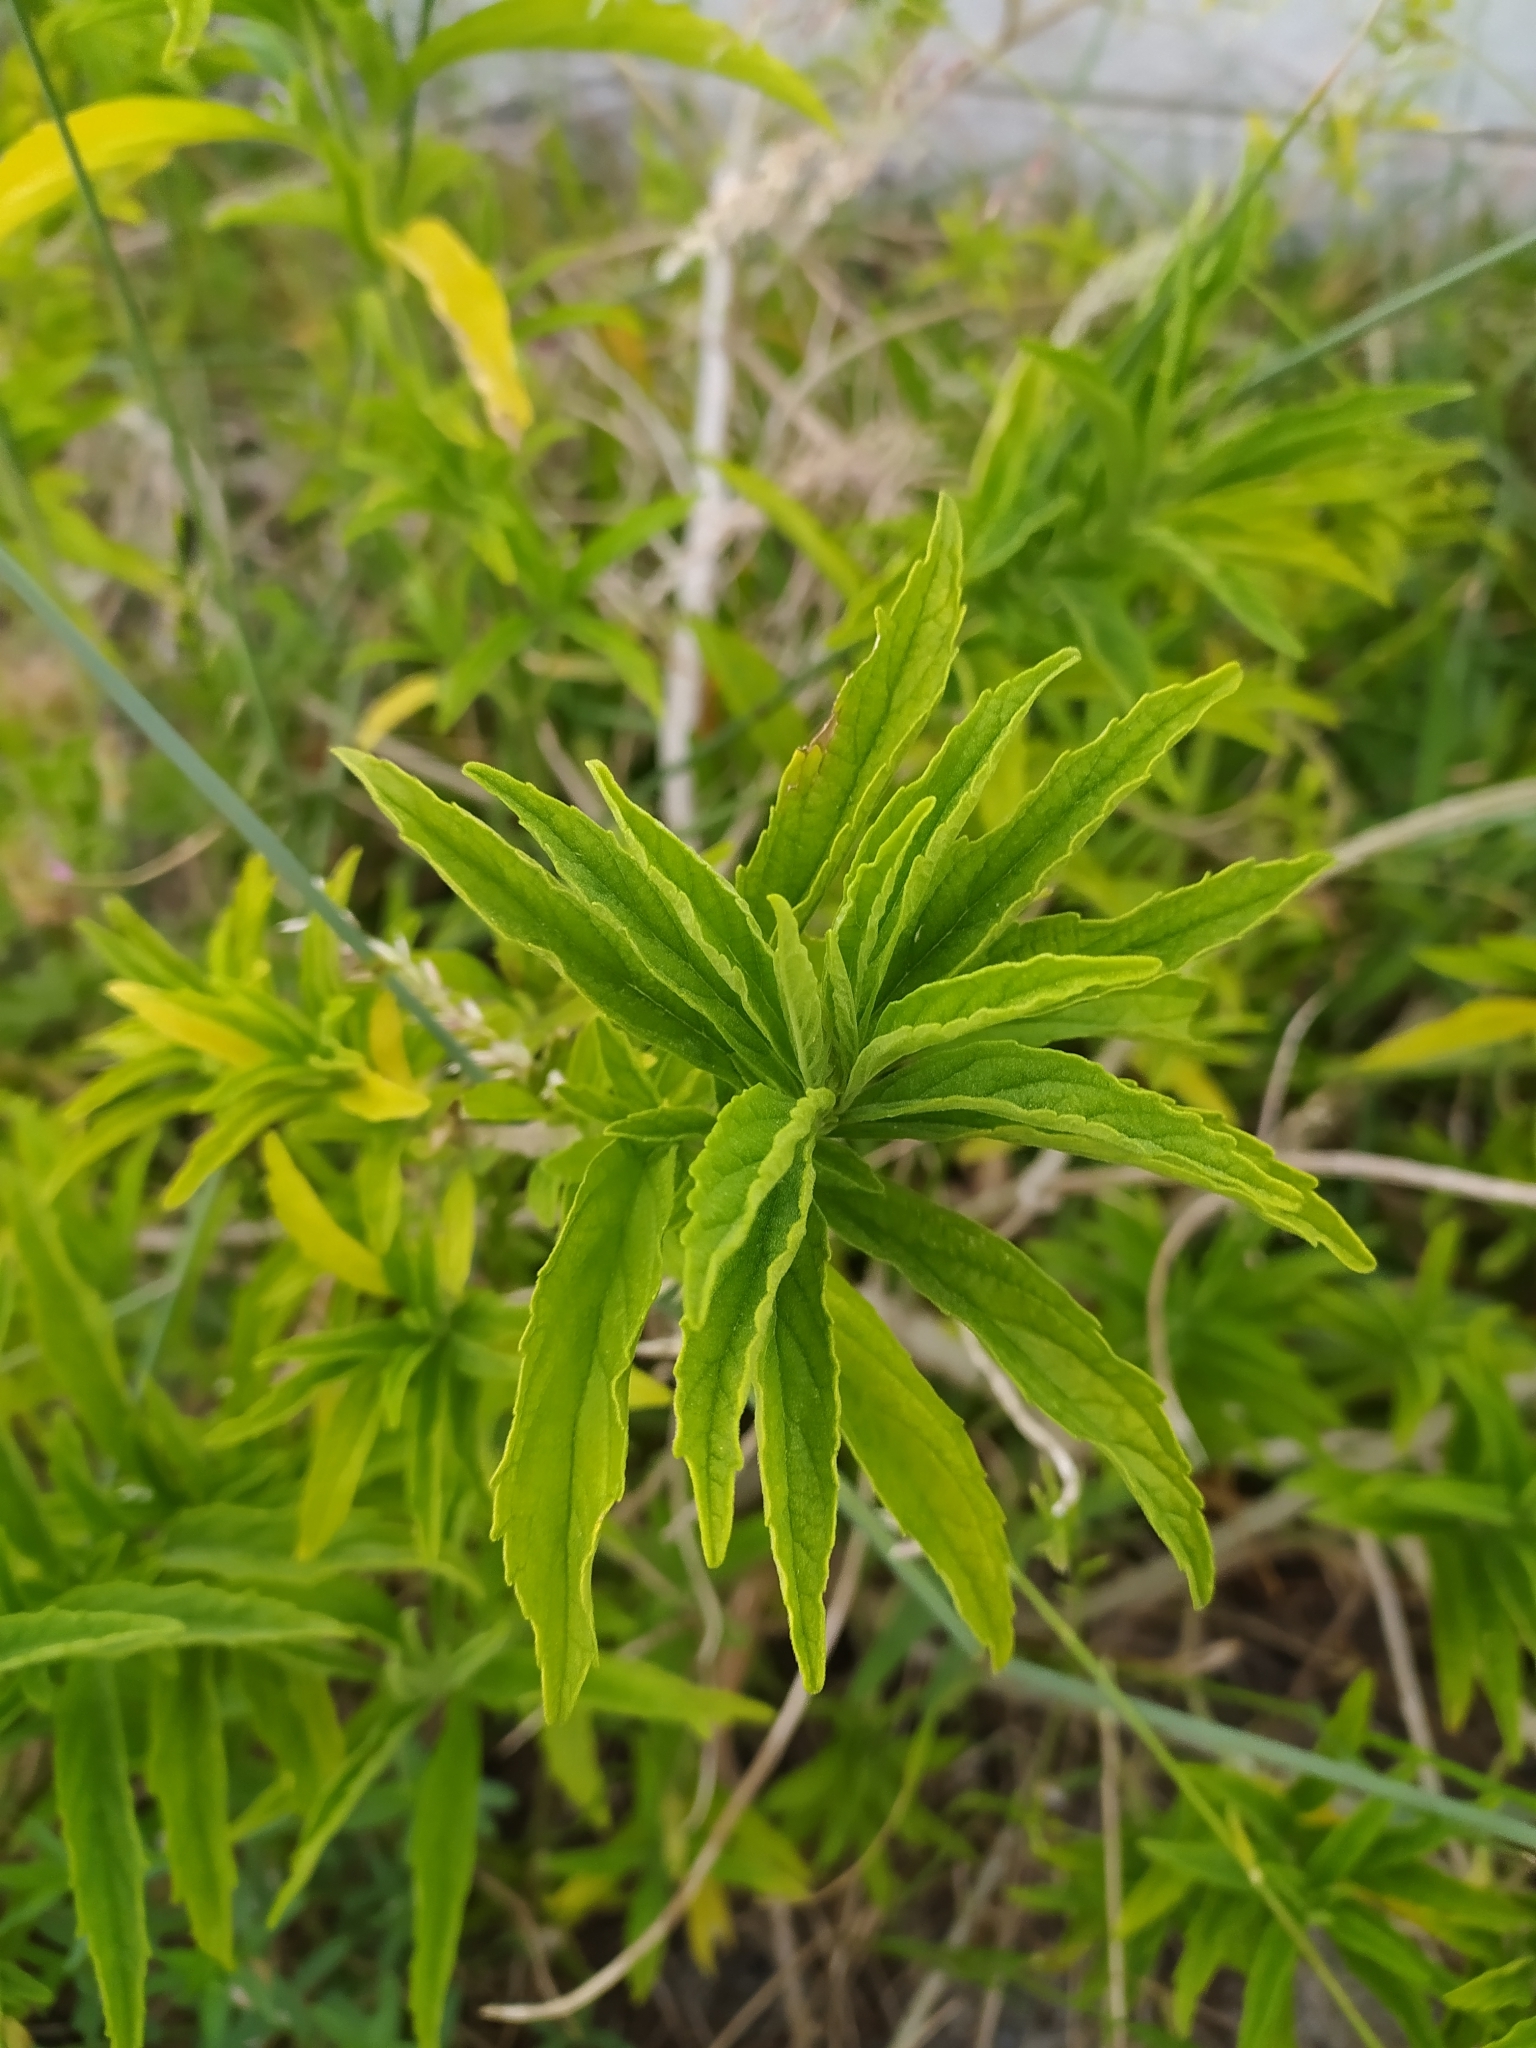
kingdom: Plantae
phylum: Tracheophyta
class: Magnoliopsida
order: Lamiales
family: Lamiaceae
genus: Leonotis
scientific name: Leonotis leonurus
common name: Lion's ear
